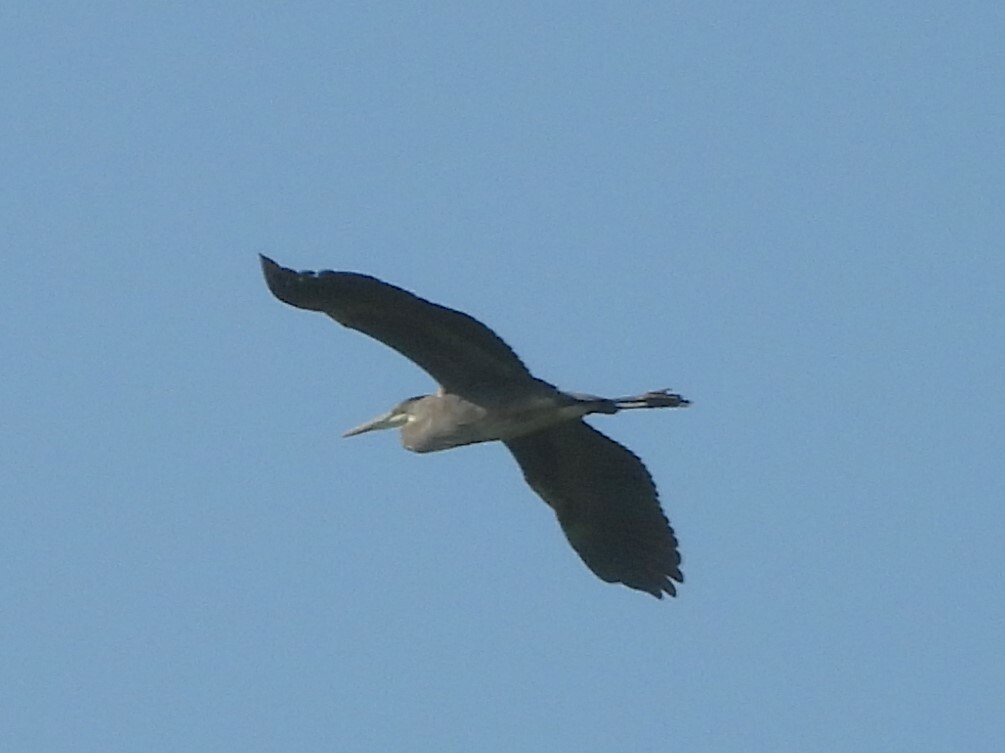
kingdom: Animalia
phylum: Chordata
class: Aves
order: Pelecaniformes
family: Ardeidae
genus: Ardea
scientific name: Ardea herodias
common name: Great blue heron
